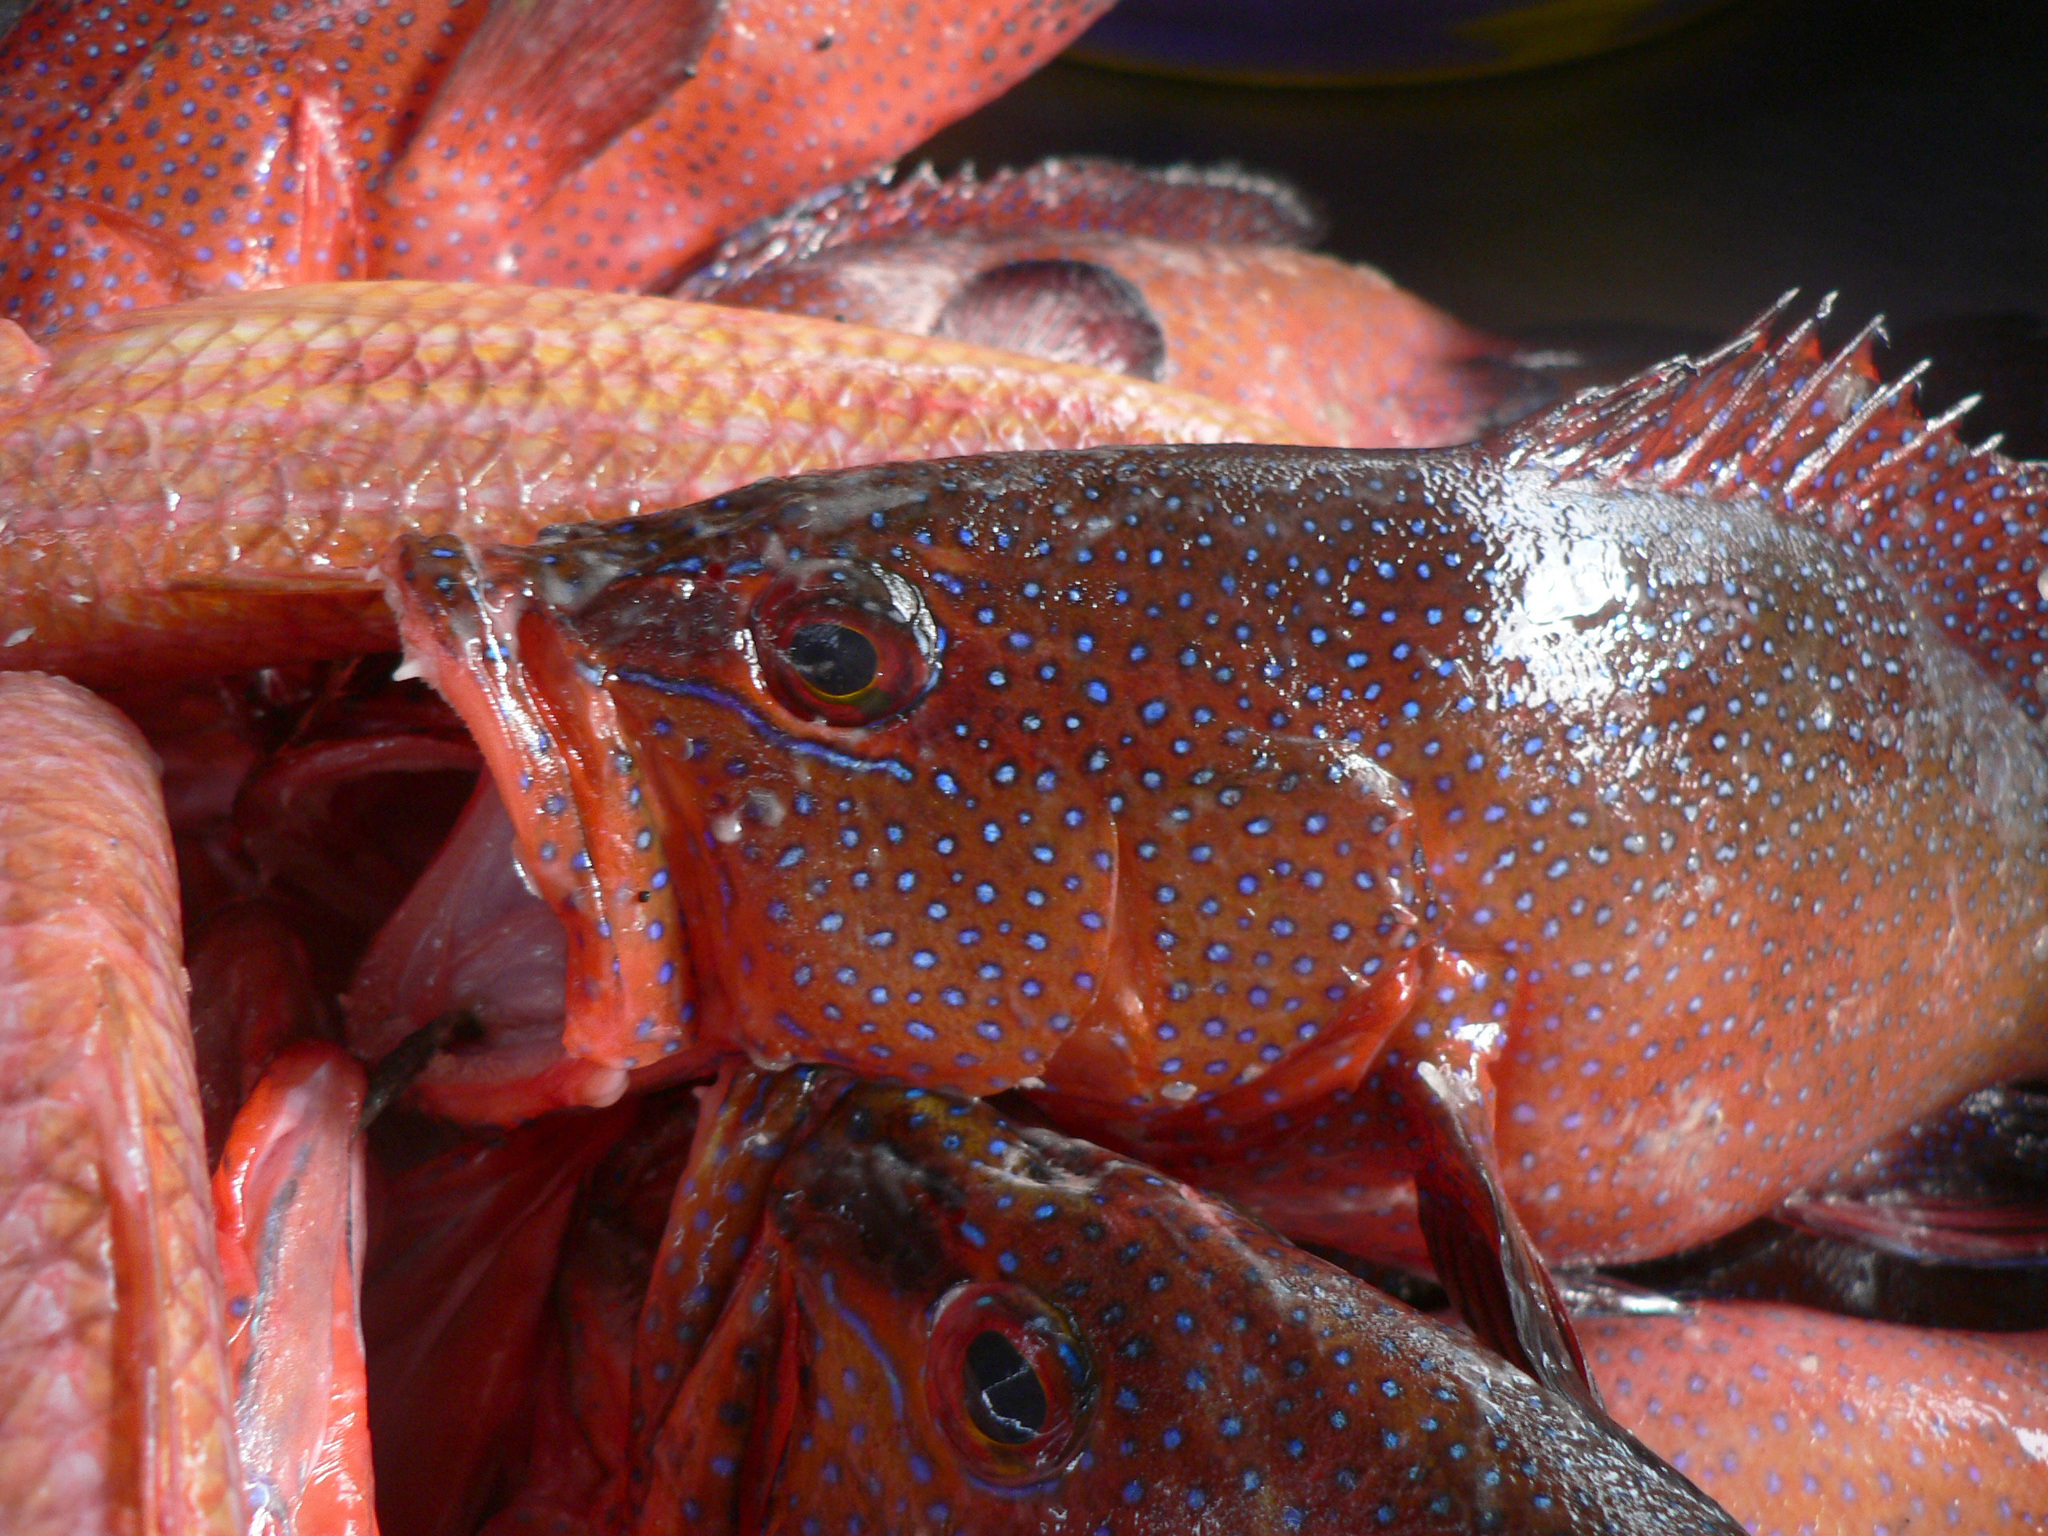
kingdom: Animalia
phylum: Chordata
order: Perciformes
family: Serranidae
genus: Cephalopholis
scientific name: Cephalopholis taeniops
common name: African hind
